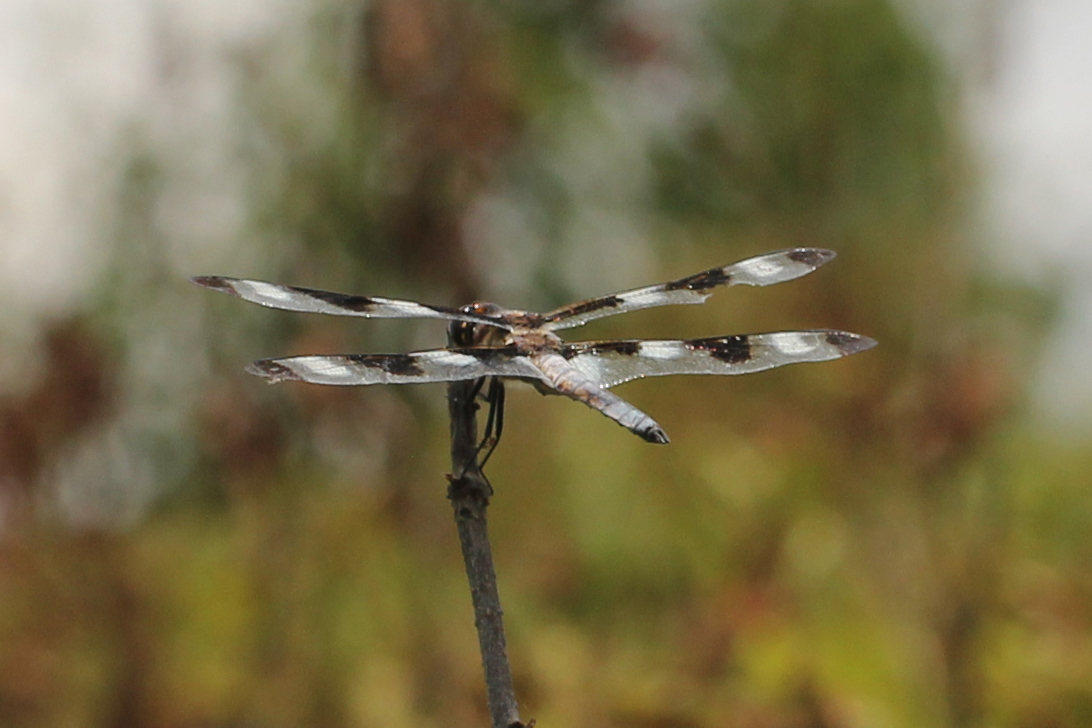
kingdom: Animalia
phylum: Arthropoda
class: Insecta
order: Odonata
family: Libellulidae
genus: Libellula
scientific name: Libellula pulchella
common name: Twelve-spotted skimmer
